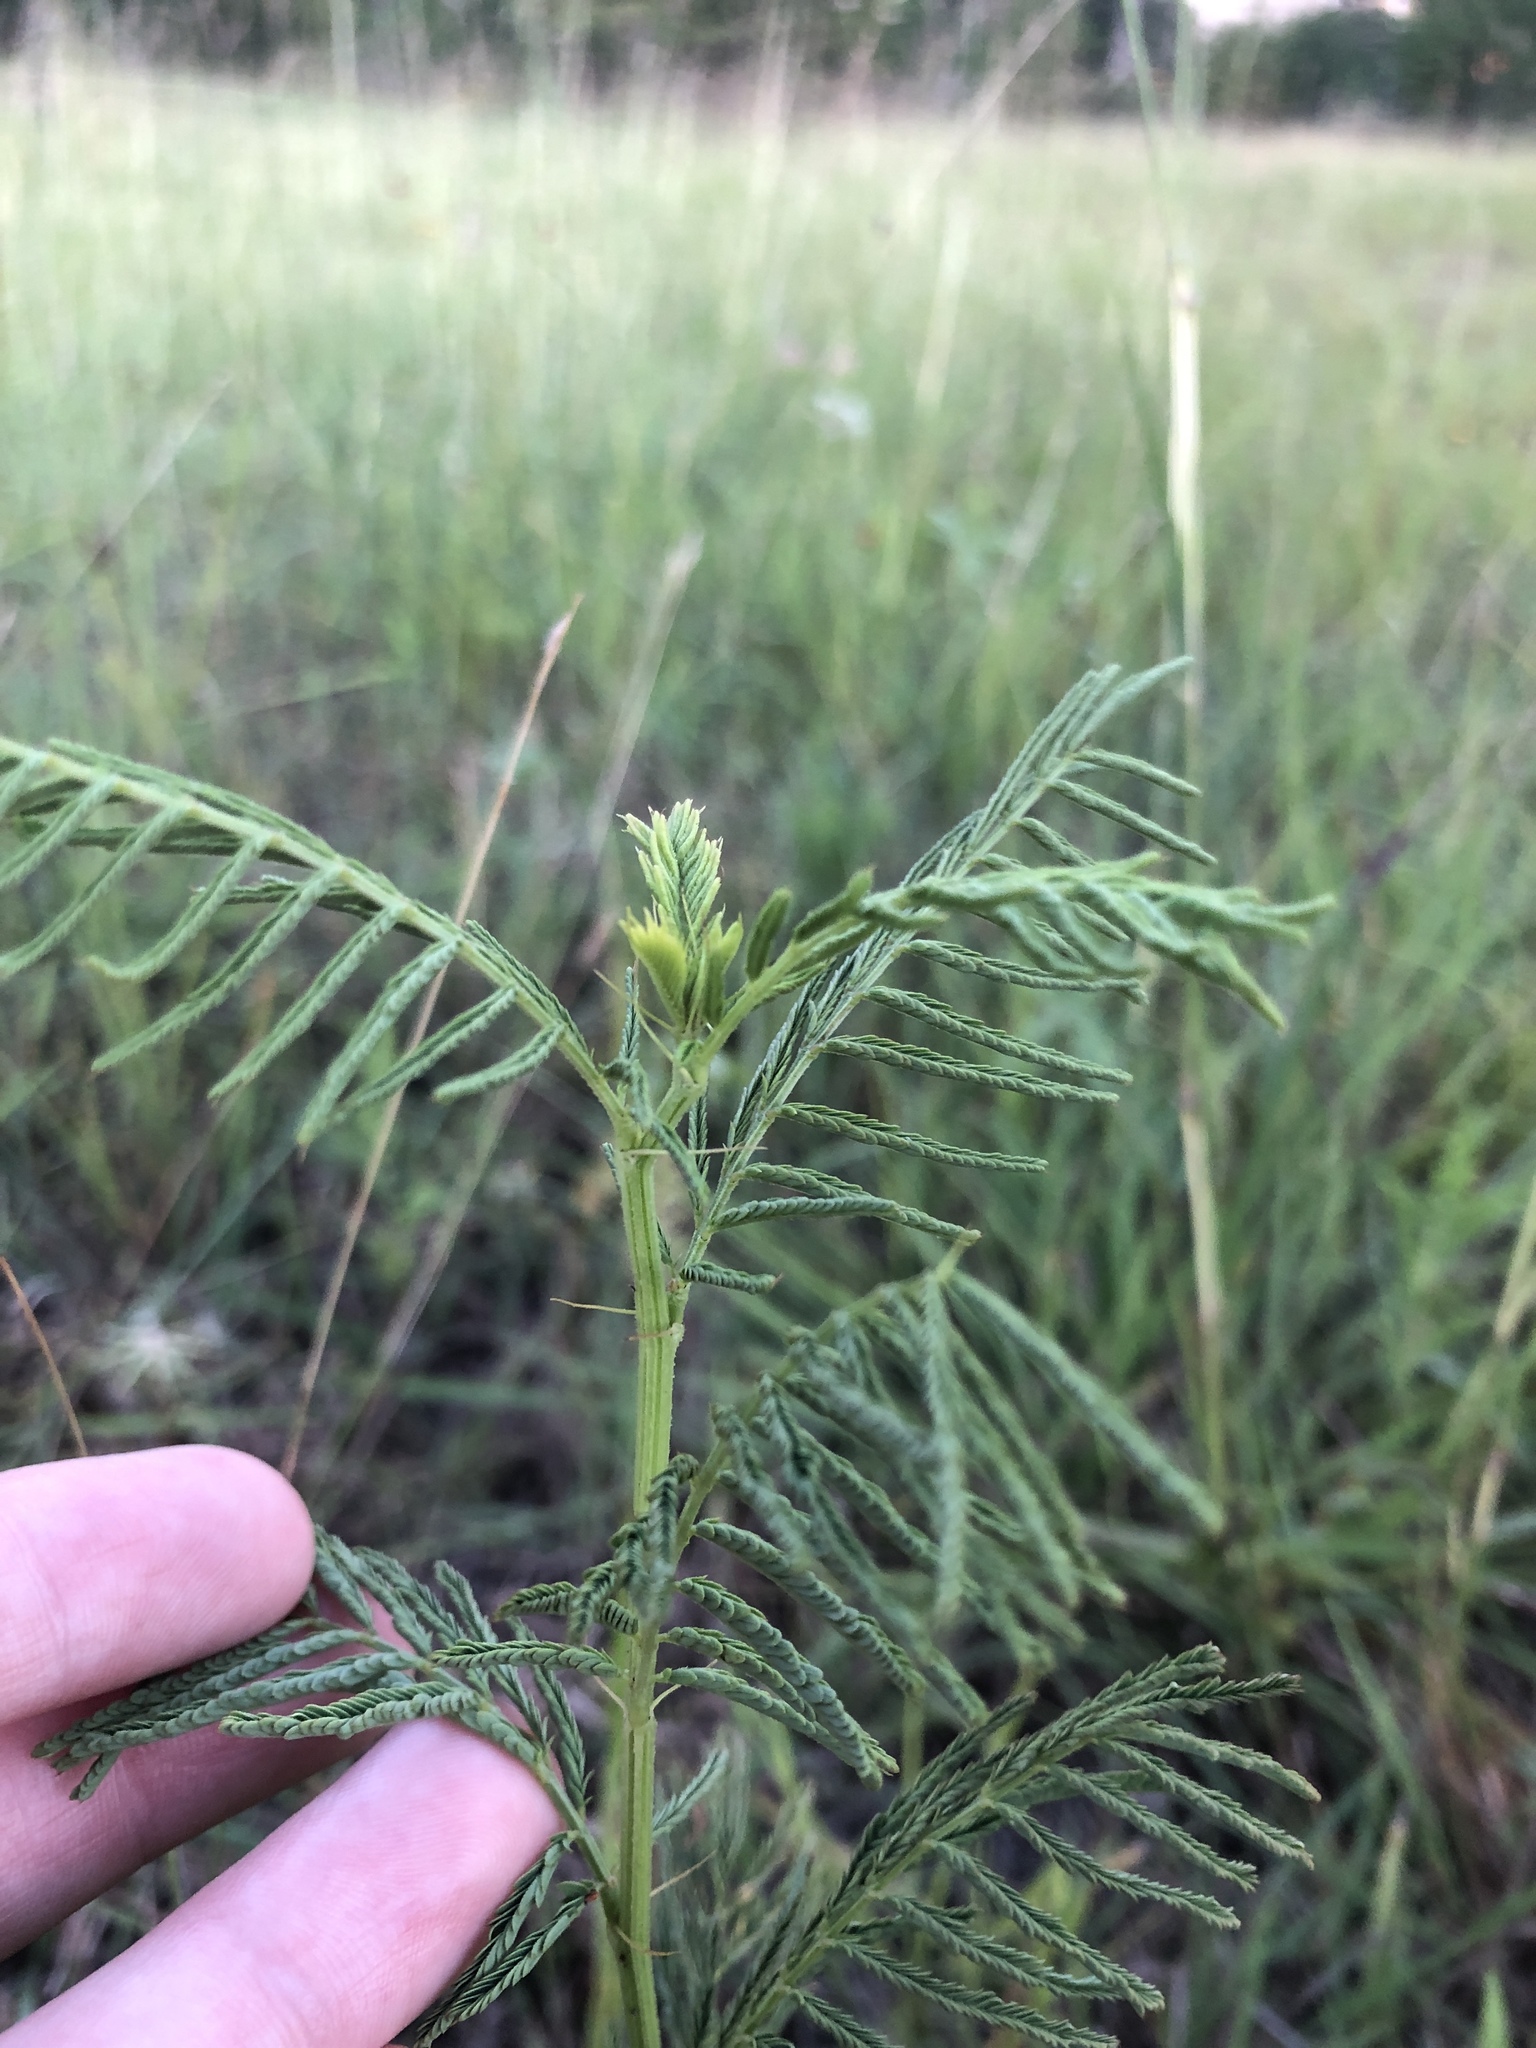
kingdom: Plantae
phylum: Tracheophyta
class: Magnoliopsida
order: Fabales
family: Fabaceae
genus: Desmanthus
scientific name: Desmanthus illinoensis
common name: Illinois bundle-flower
